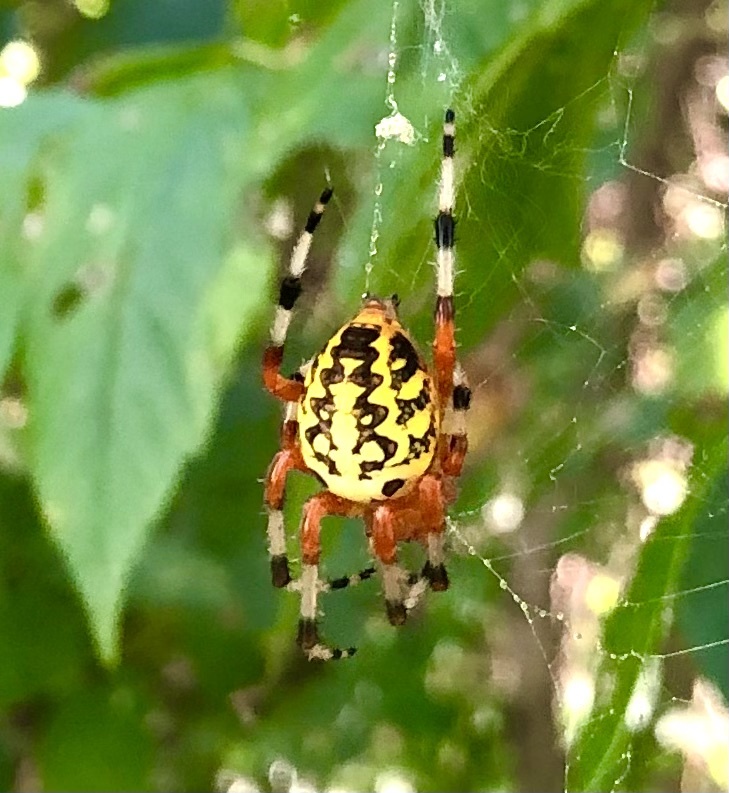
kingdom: Animalia
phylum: Arthropoda
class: Arachnida
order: Araneae
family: Araneidae
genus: Araneus
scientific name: Araneus marmoreus
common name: Marbled orbweaver
